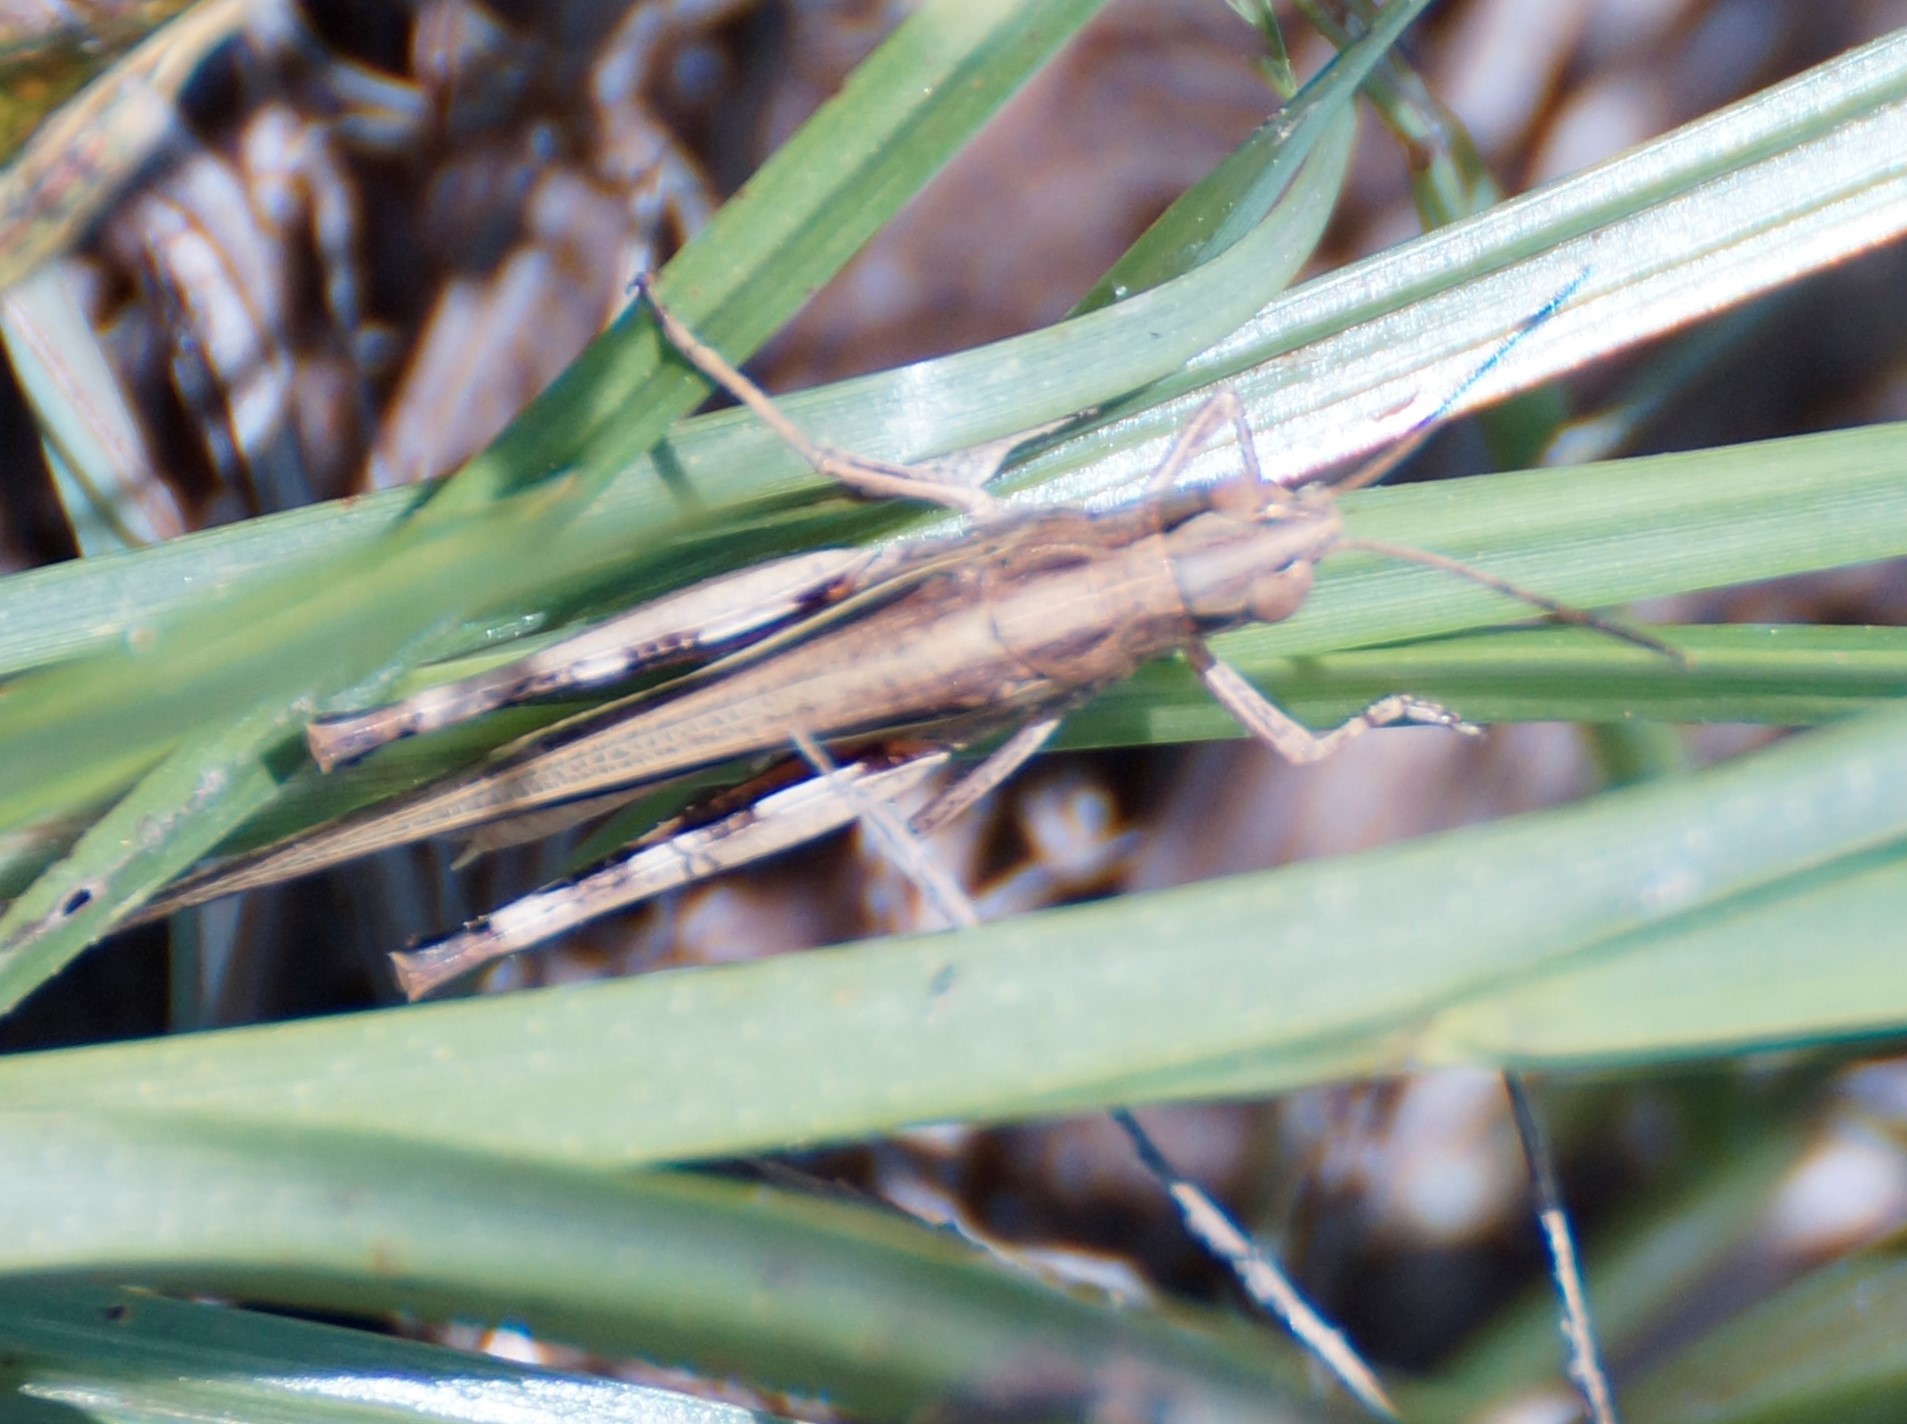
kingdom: Animalia
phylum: Arthropoda
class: Insecta
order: Orthoptera
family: Acrididae
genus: Aiolopus
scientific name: Aiolopus thalassinus
